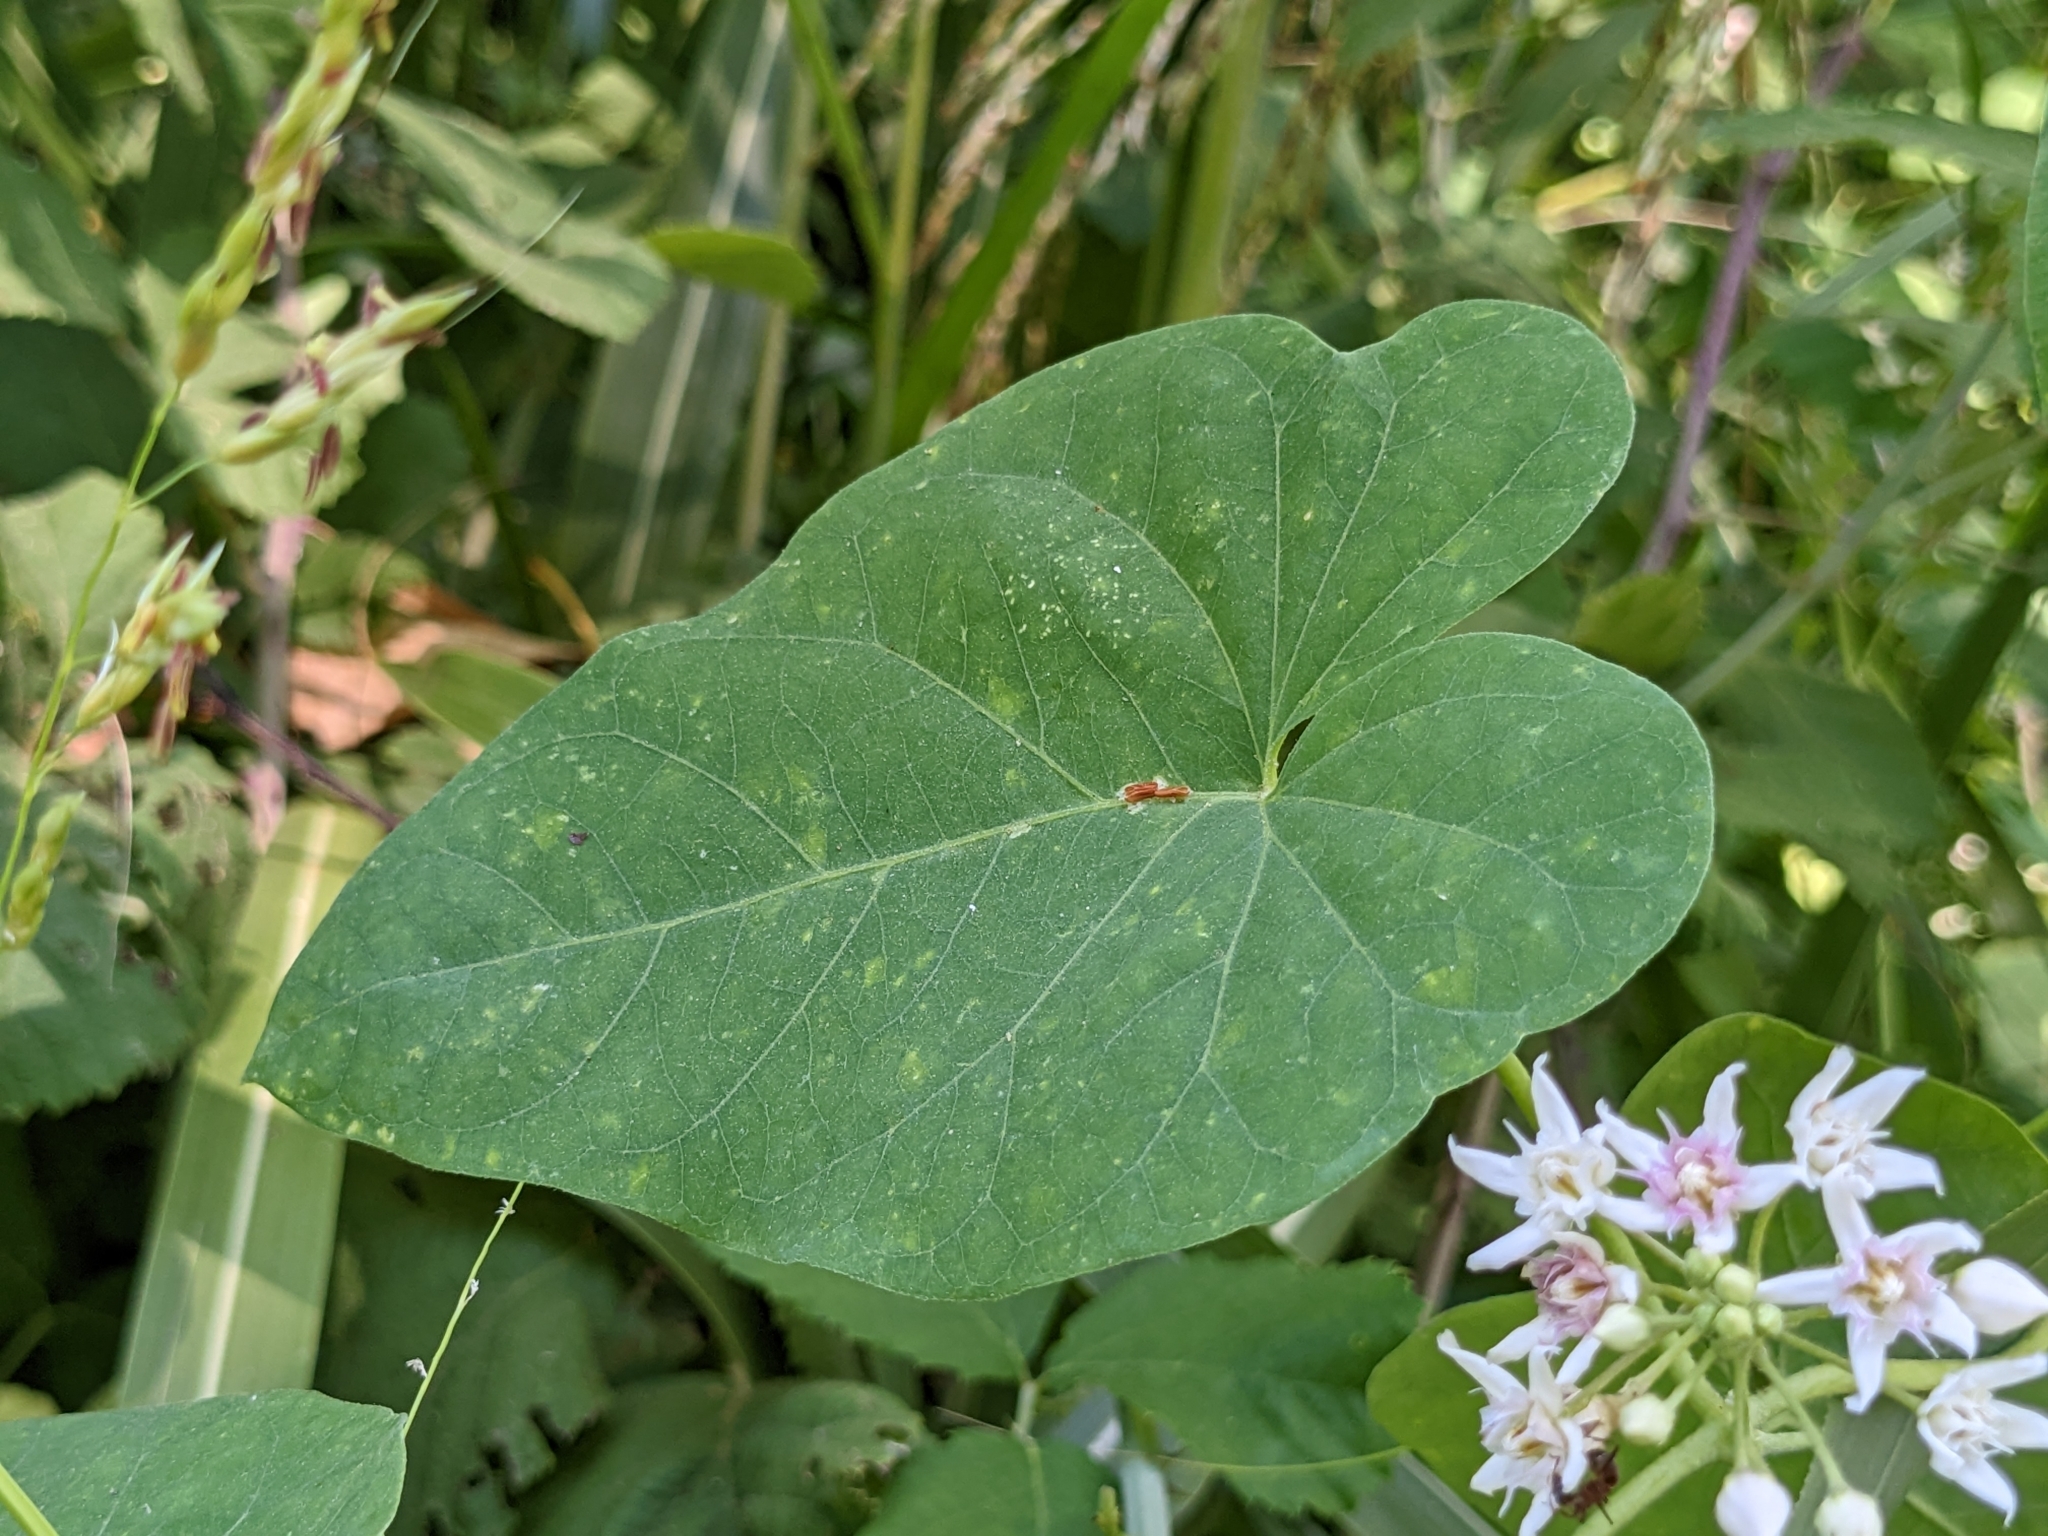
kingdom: Plantae
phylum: Tracheophyta
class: Magnoliopsida
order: Gentianales
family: Apocynaceae
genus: Cynanchum
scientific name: Cynanchum acutum
